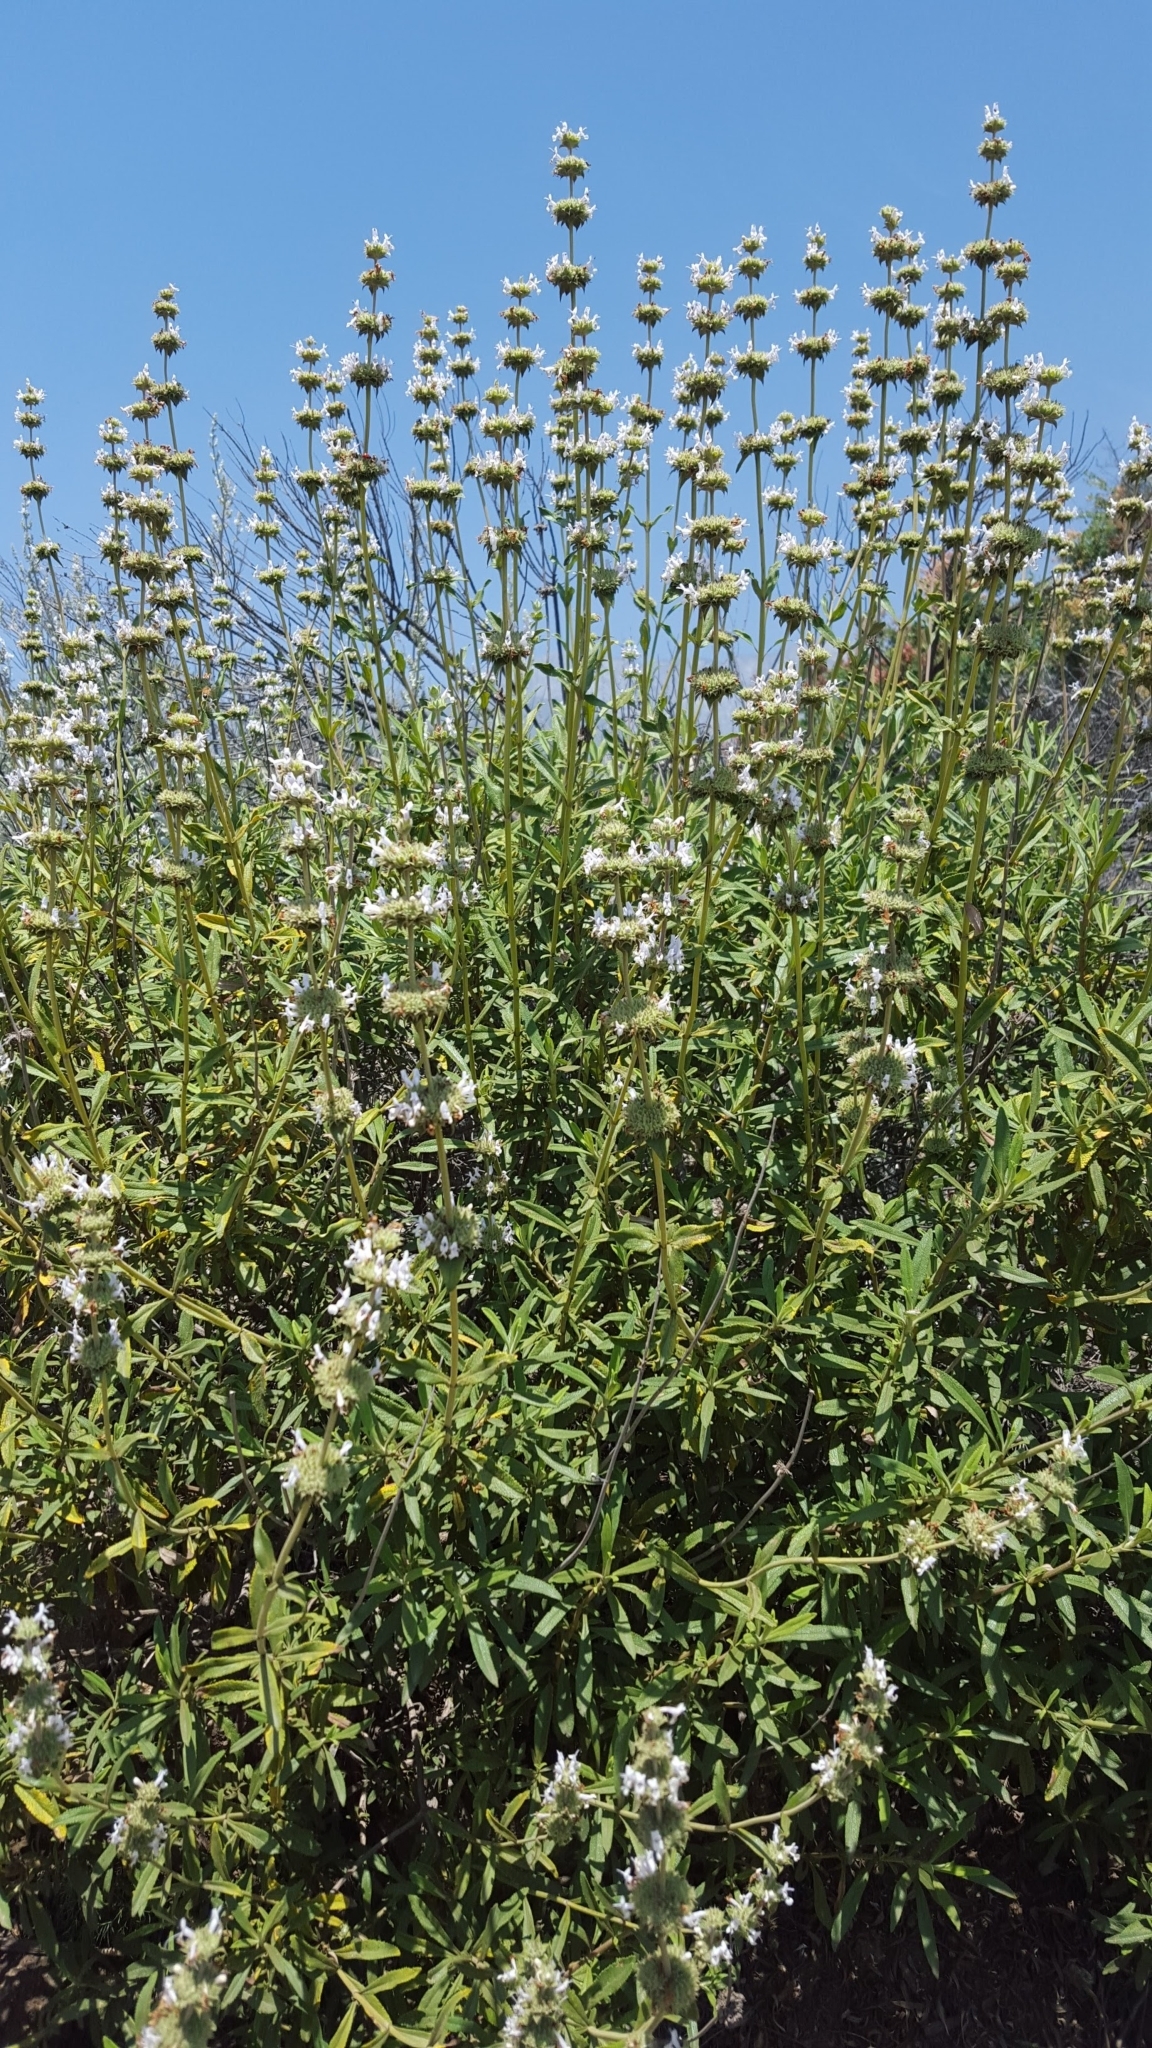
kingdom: Plantae
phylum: Tracheophyta
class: Magnoliopsida
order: Lamiales
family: Lamiaceae
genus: Salvia
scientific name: Salvia mellifera
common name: Black sage
